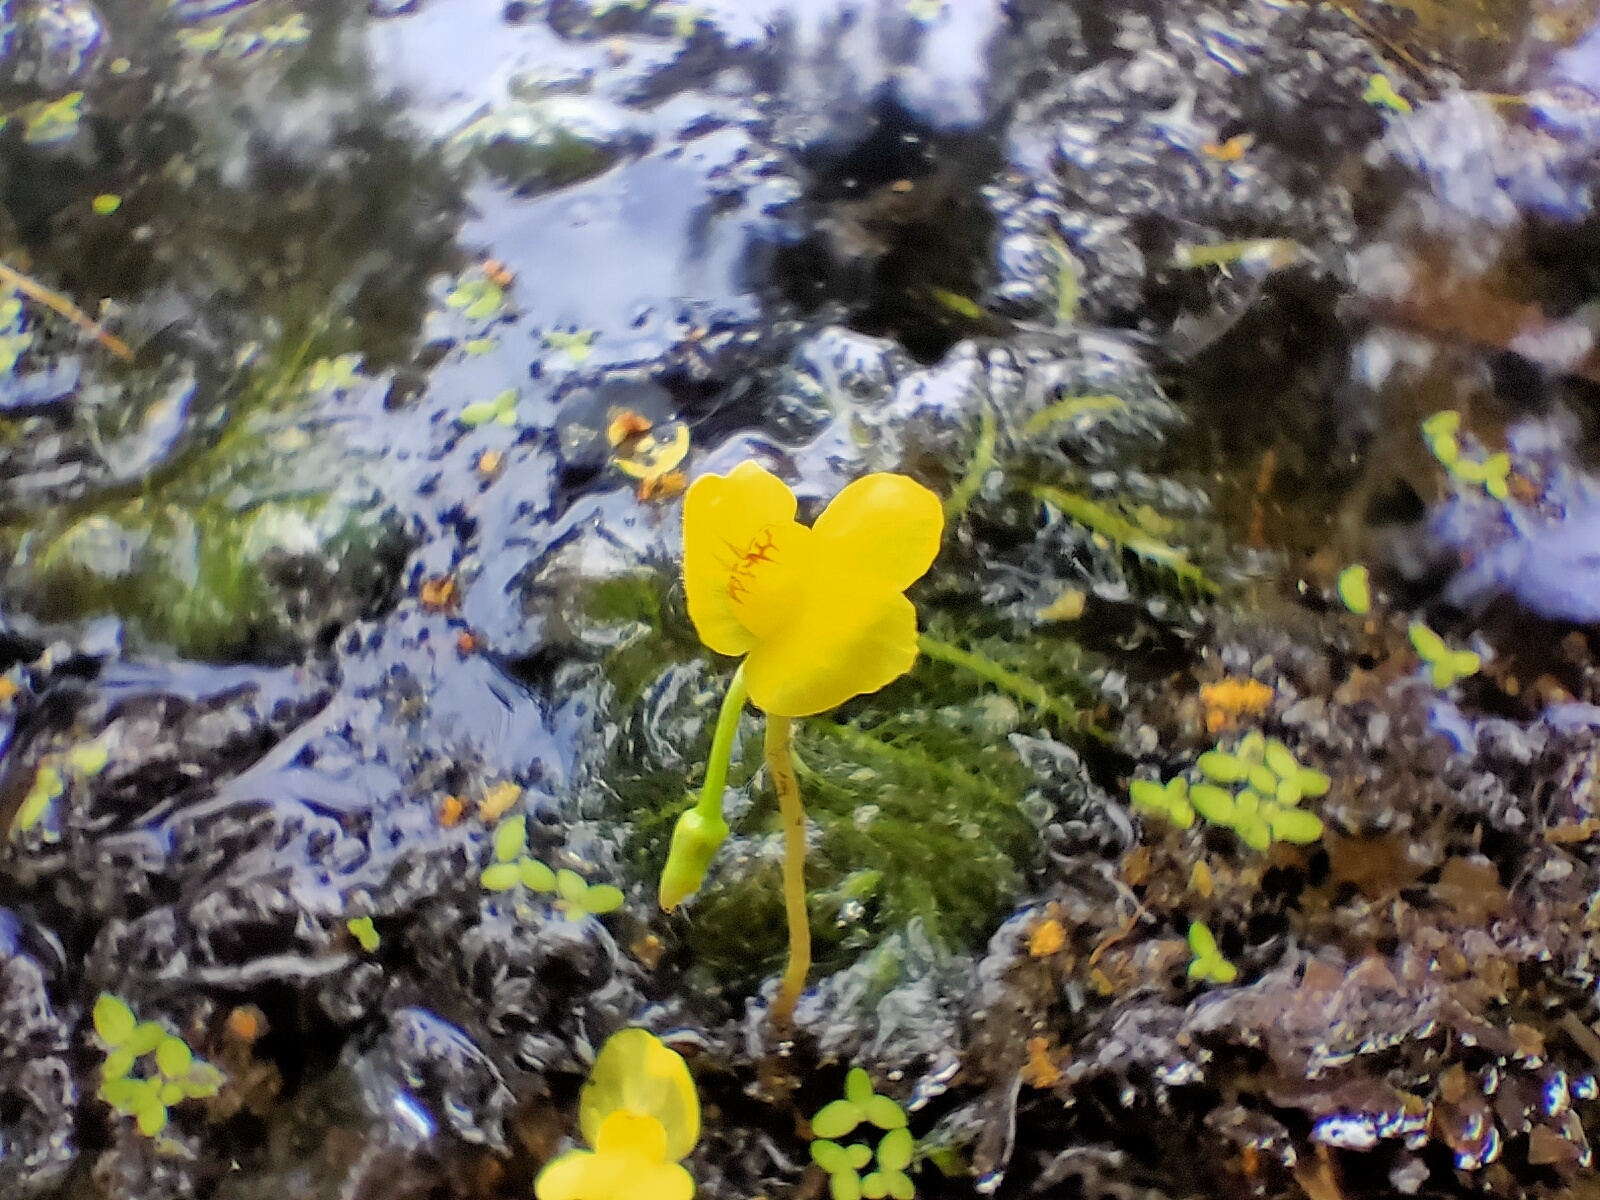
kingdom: Plantae
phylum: Tracheophyta
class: Magnoliopsida
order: Lamiales
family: Lentibulariaceae
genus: Utricularia
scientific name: Utricularia aurea
